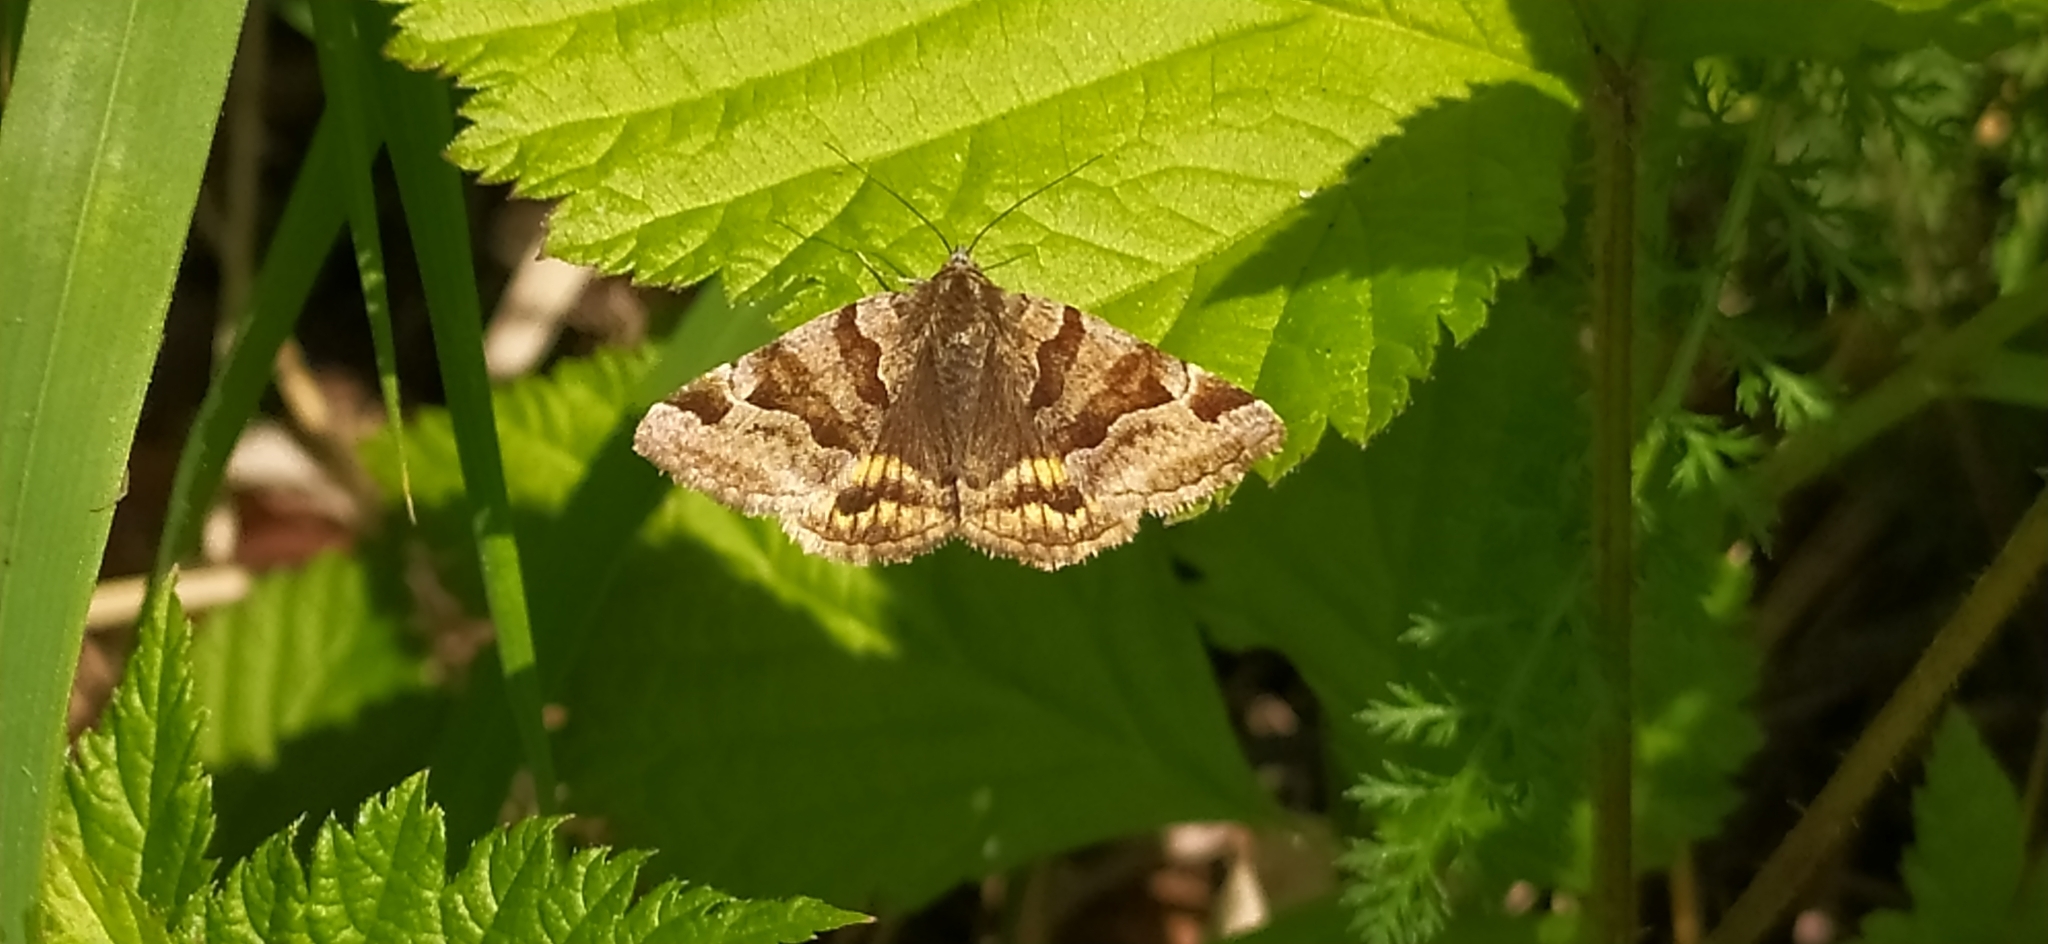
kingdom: Animalia
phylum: Arthropoda
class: Insecta
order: Lepidoptera
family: Erebidae
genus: Euclidia
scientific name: Euclidia glyphica
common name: Burnet companion
